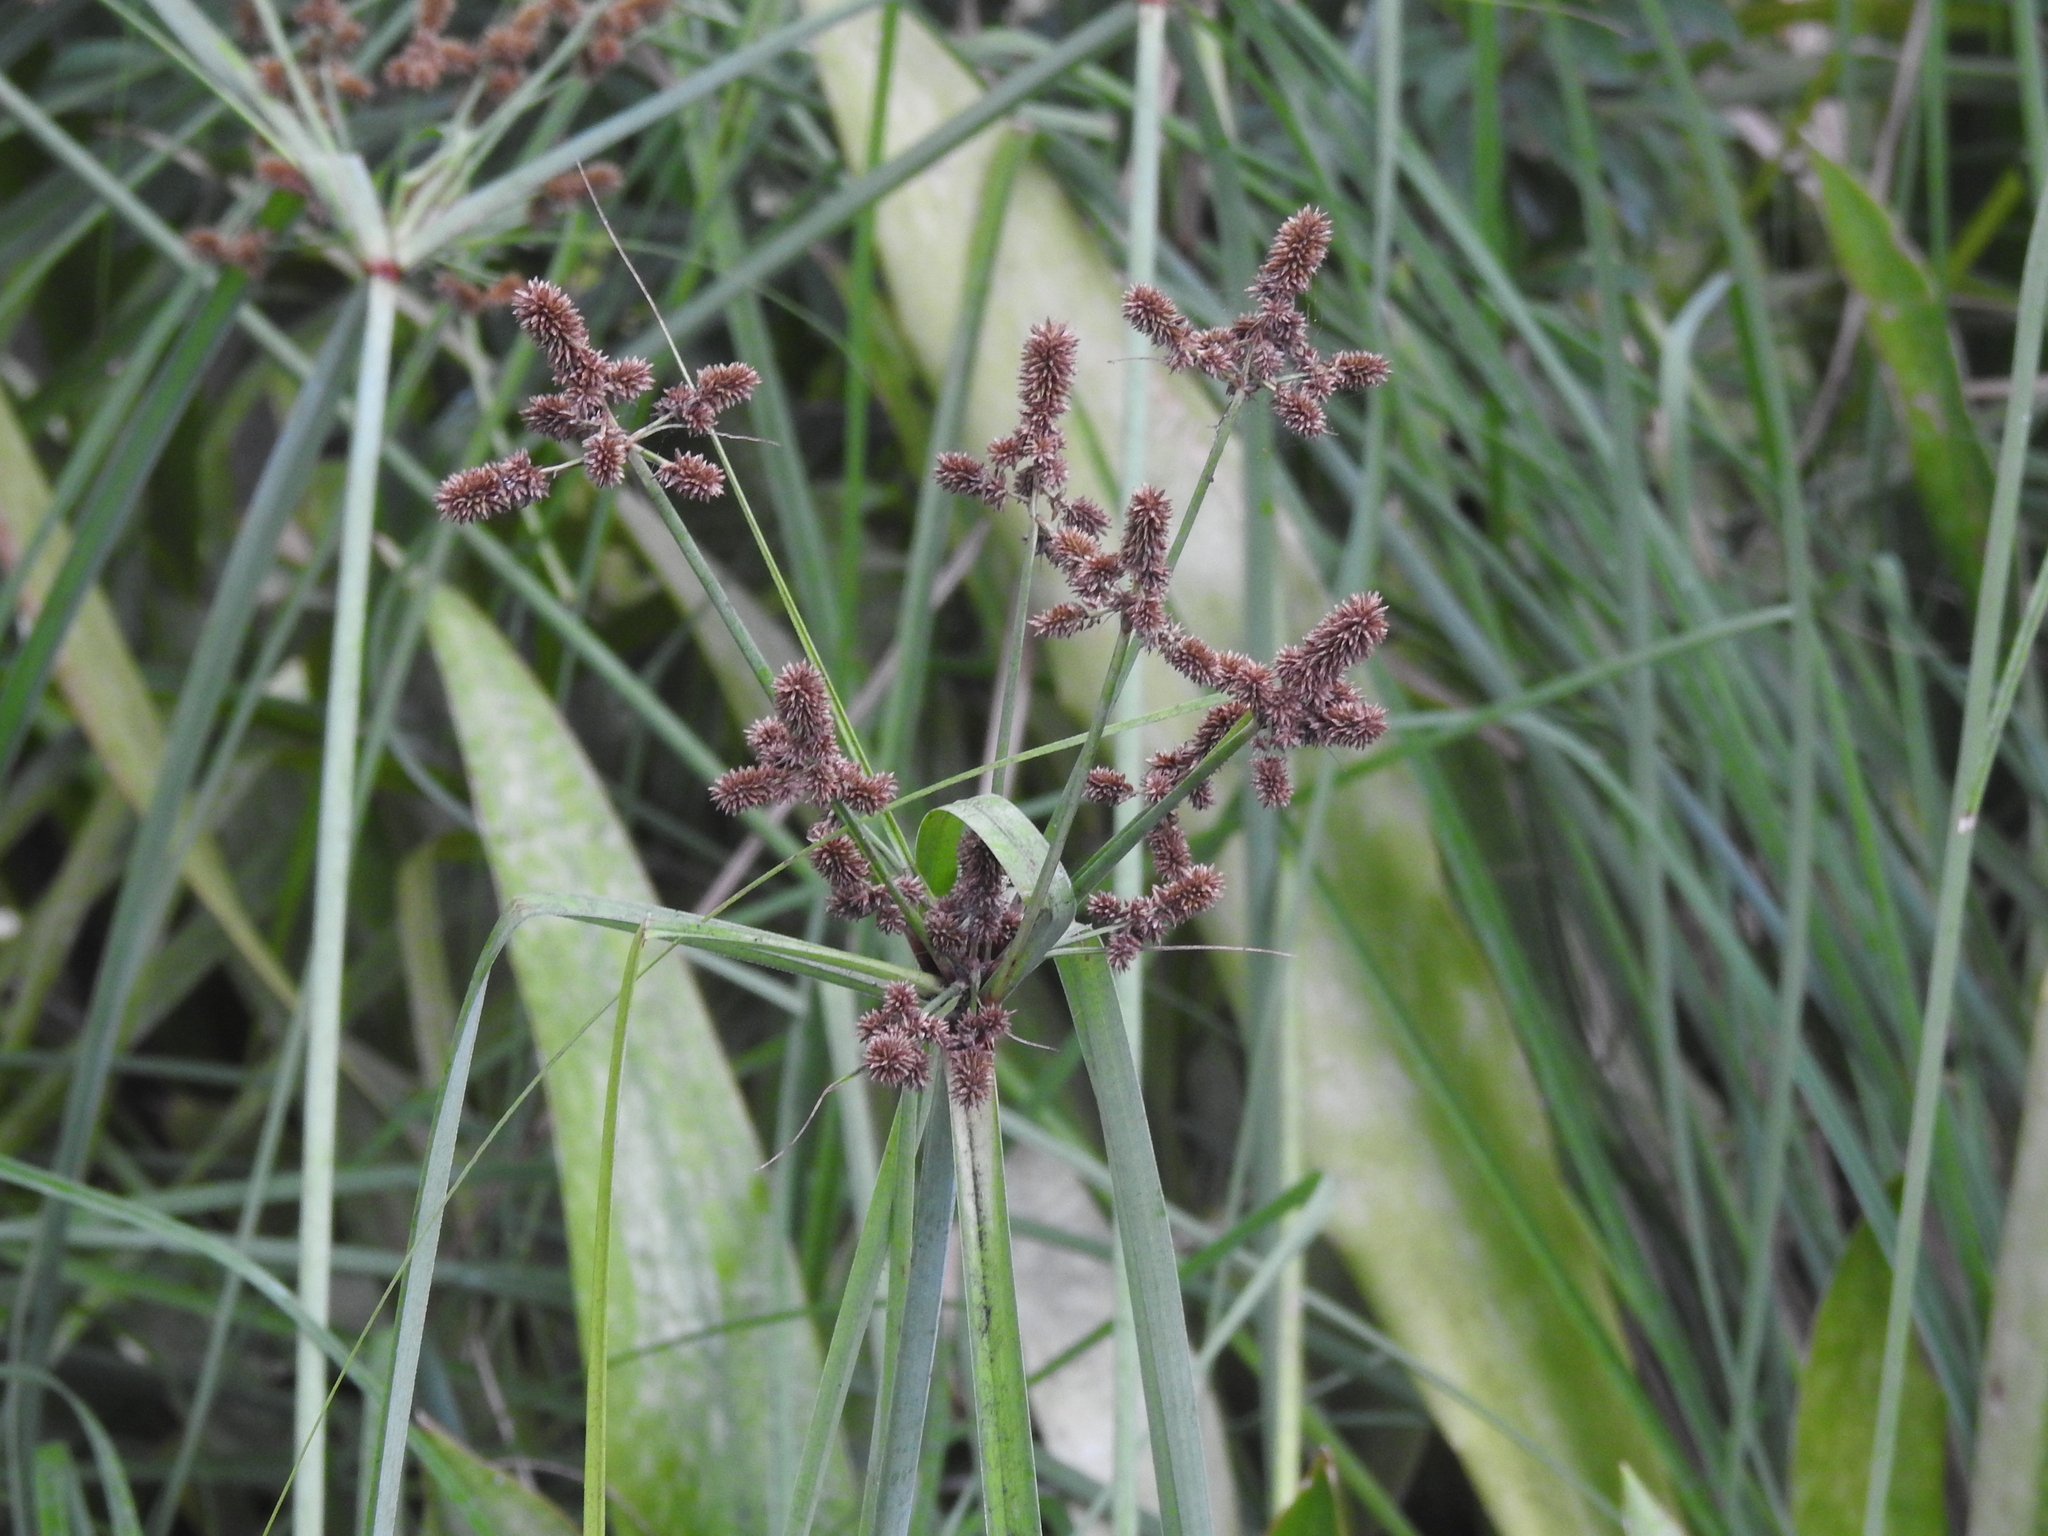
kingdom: Plantae
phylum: Tracheophyta
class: Liliopsida
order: Poales
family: Cyperaceae
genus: Cyperus
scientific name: Cyperus ligularis
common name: Swamp flat sedge
